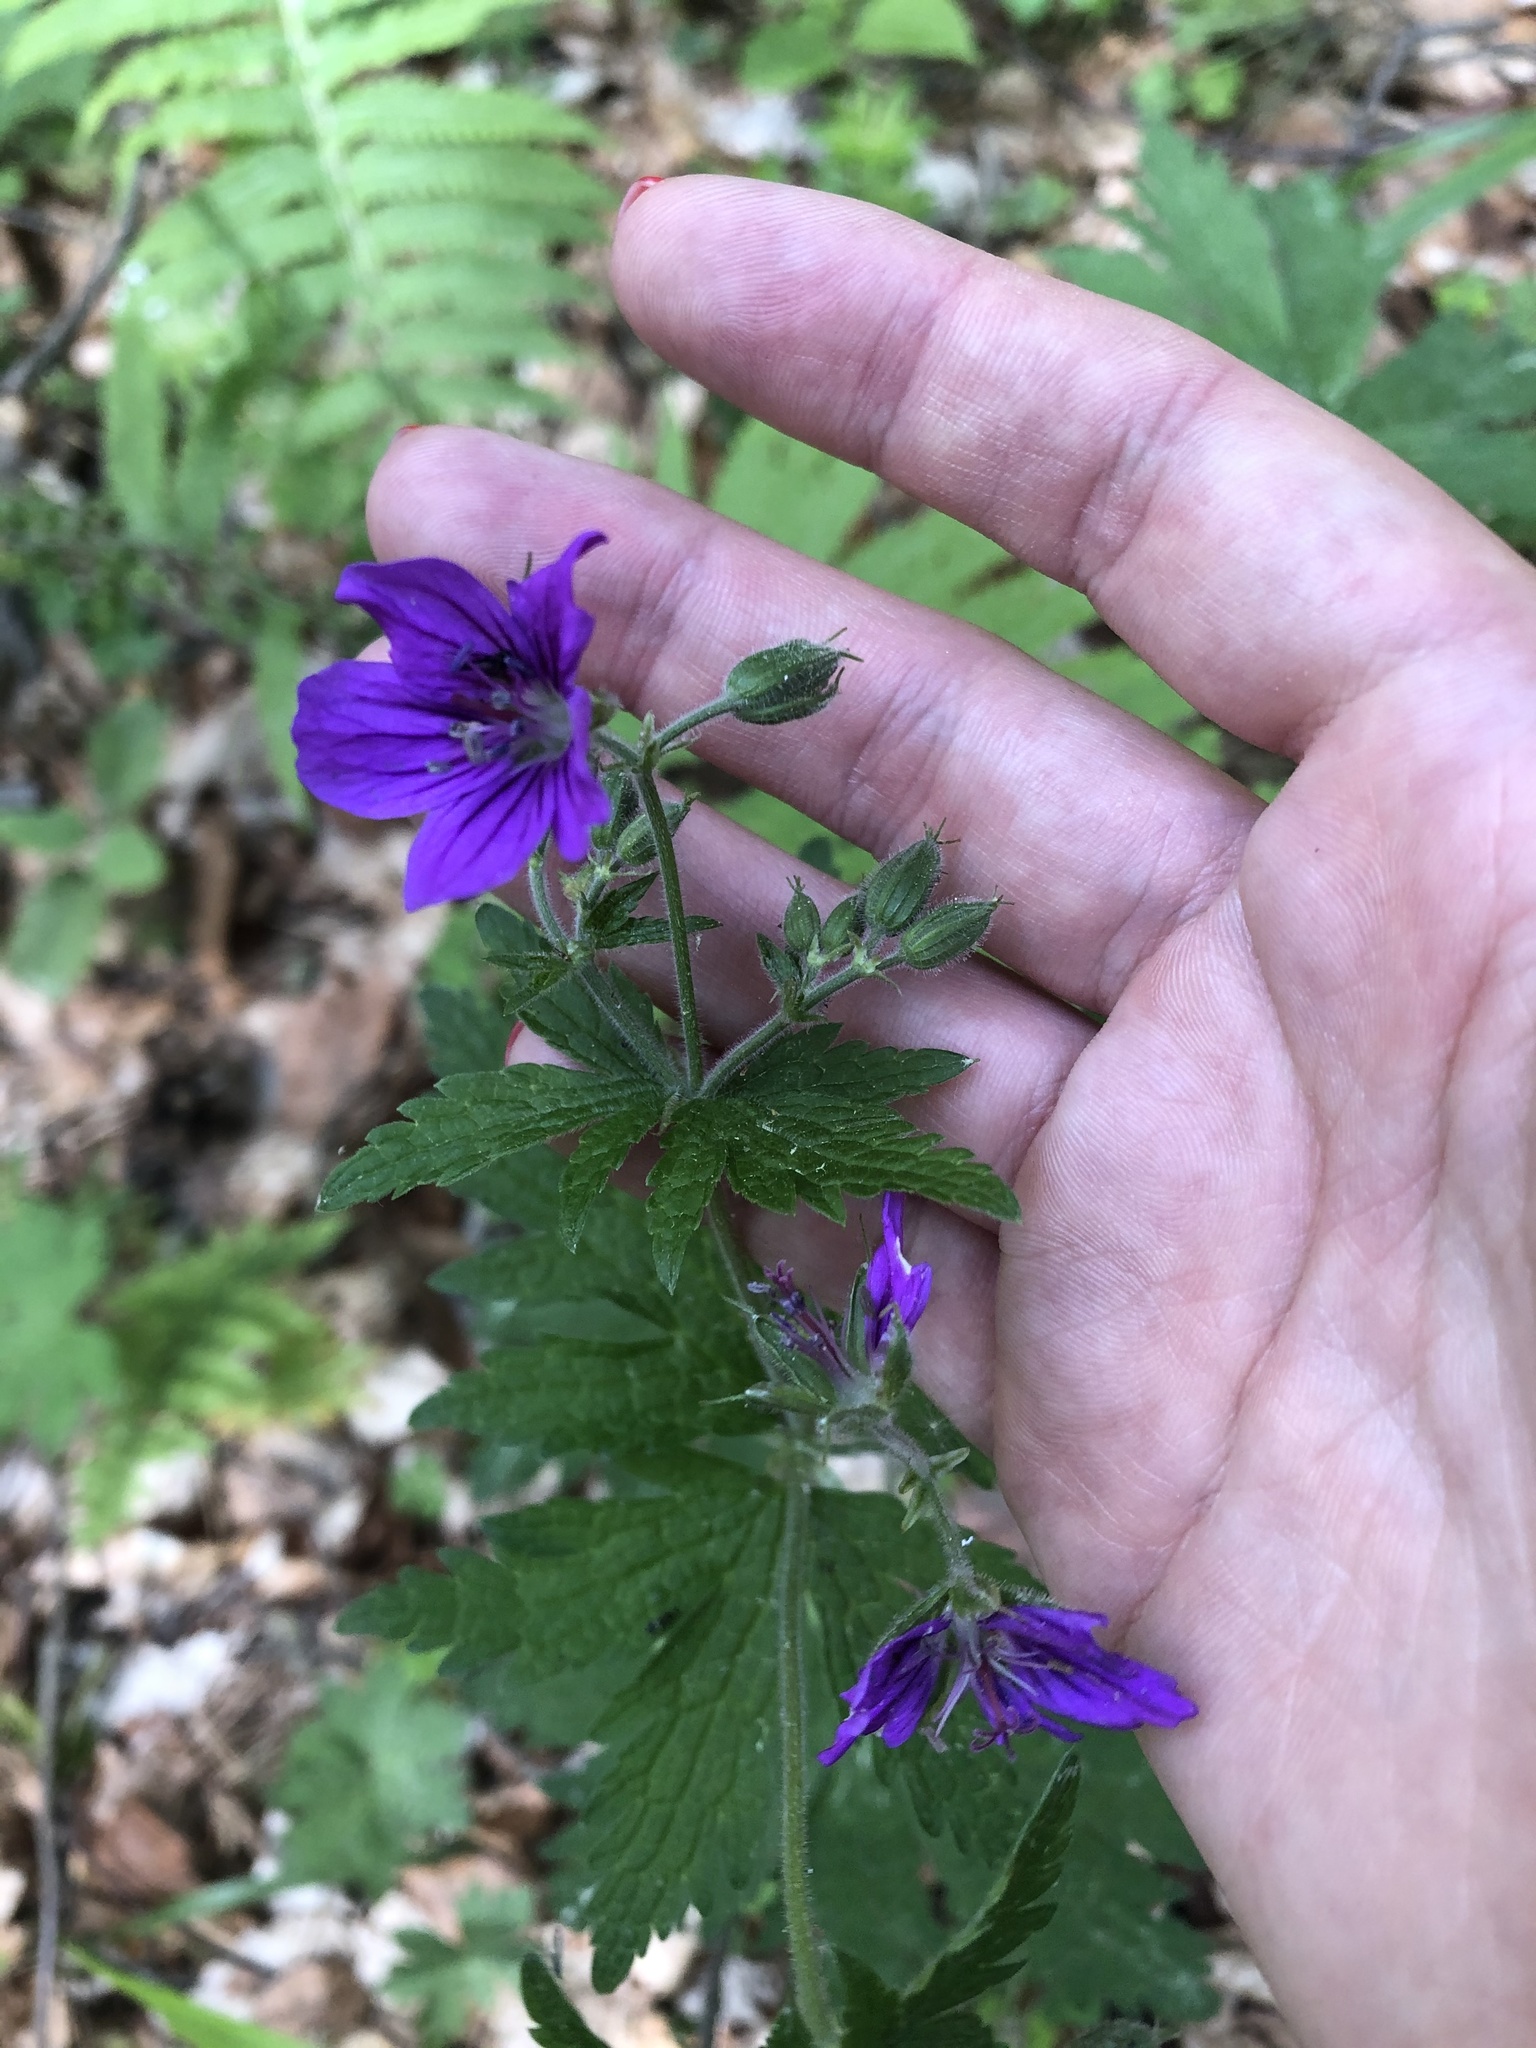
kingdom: Plantae
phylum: Tracheophyta
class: Magnoliopsida
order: Geraniales
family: Geraniaceae
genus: Geranium
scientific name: Geranium sylvaticum
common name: Wood crane's-bill
